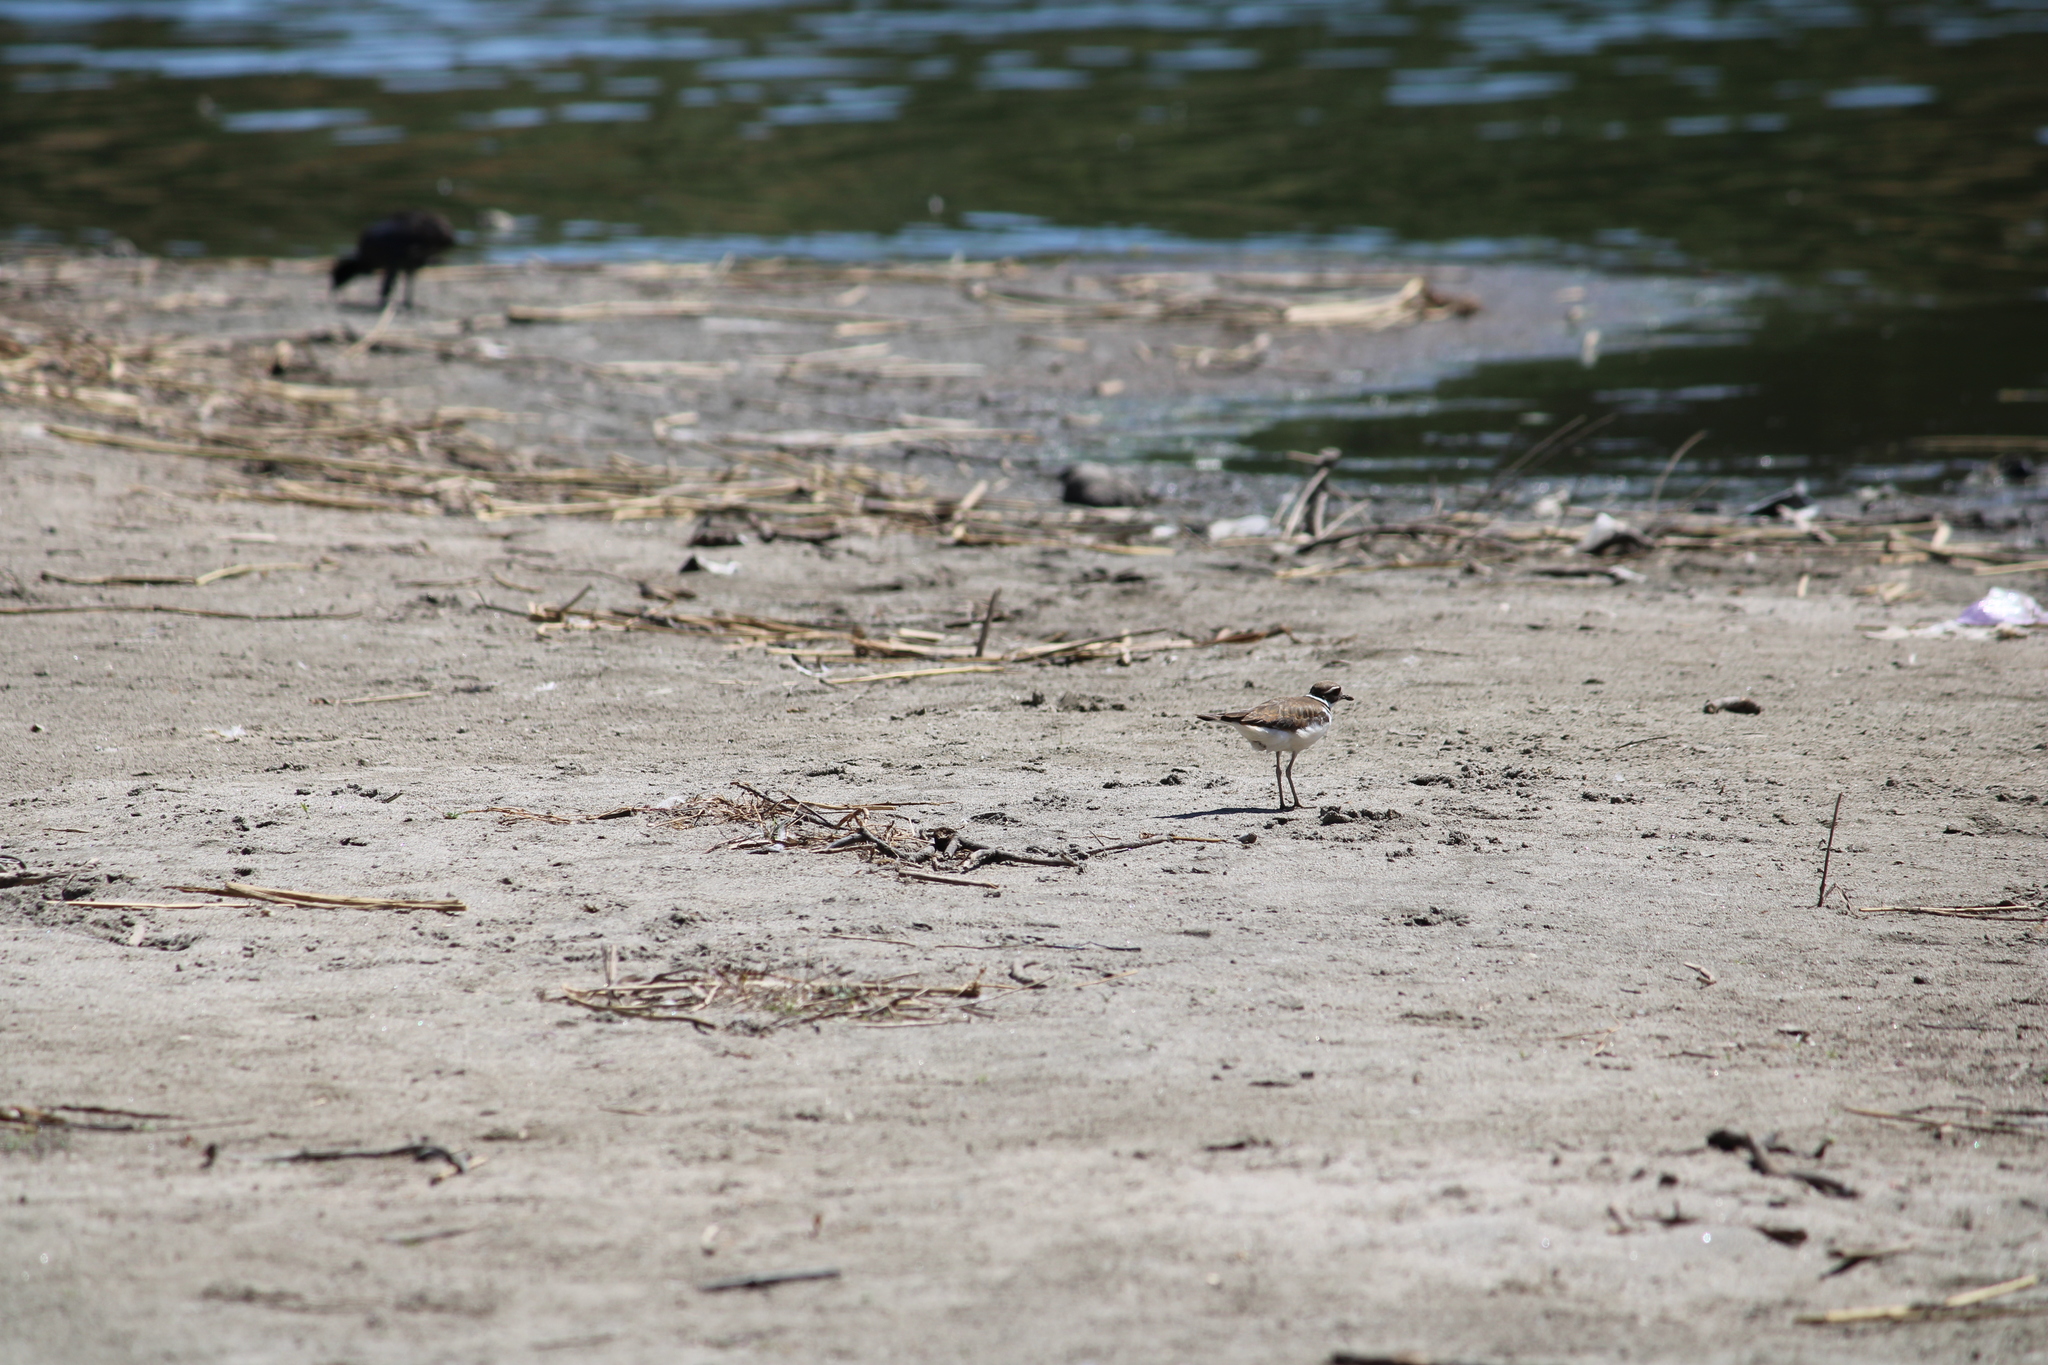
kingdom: Animalia
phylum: Chordata
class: Aves
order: Charadriiformes
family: Charadriidae
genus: Charadrius
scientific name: Charadrius vociferus
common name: Killdeer
